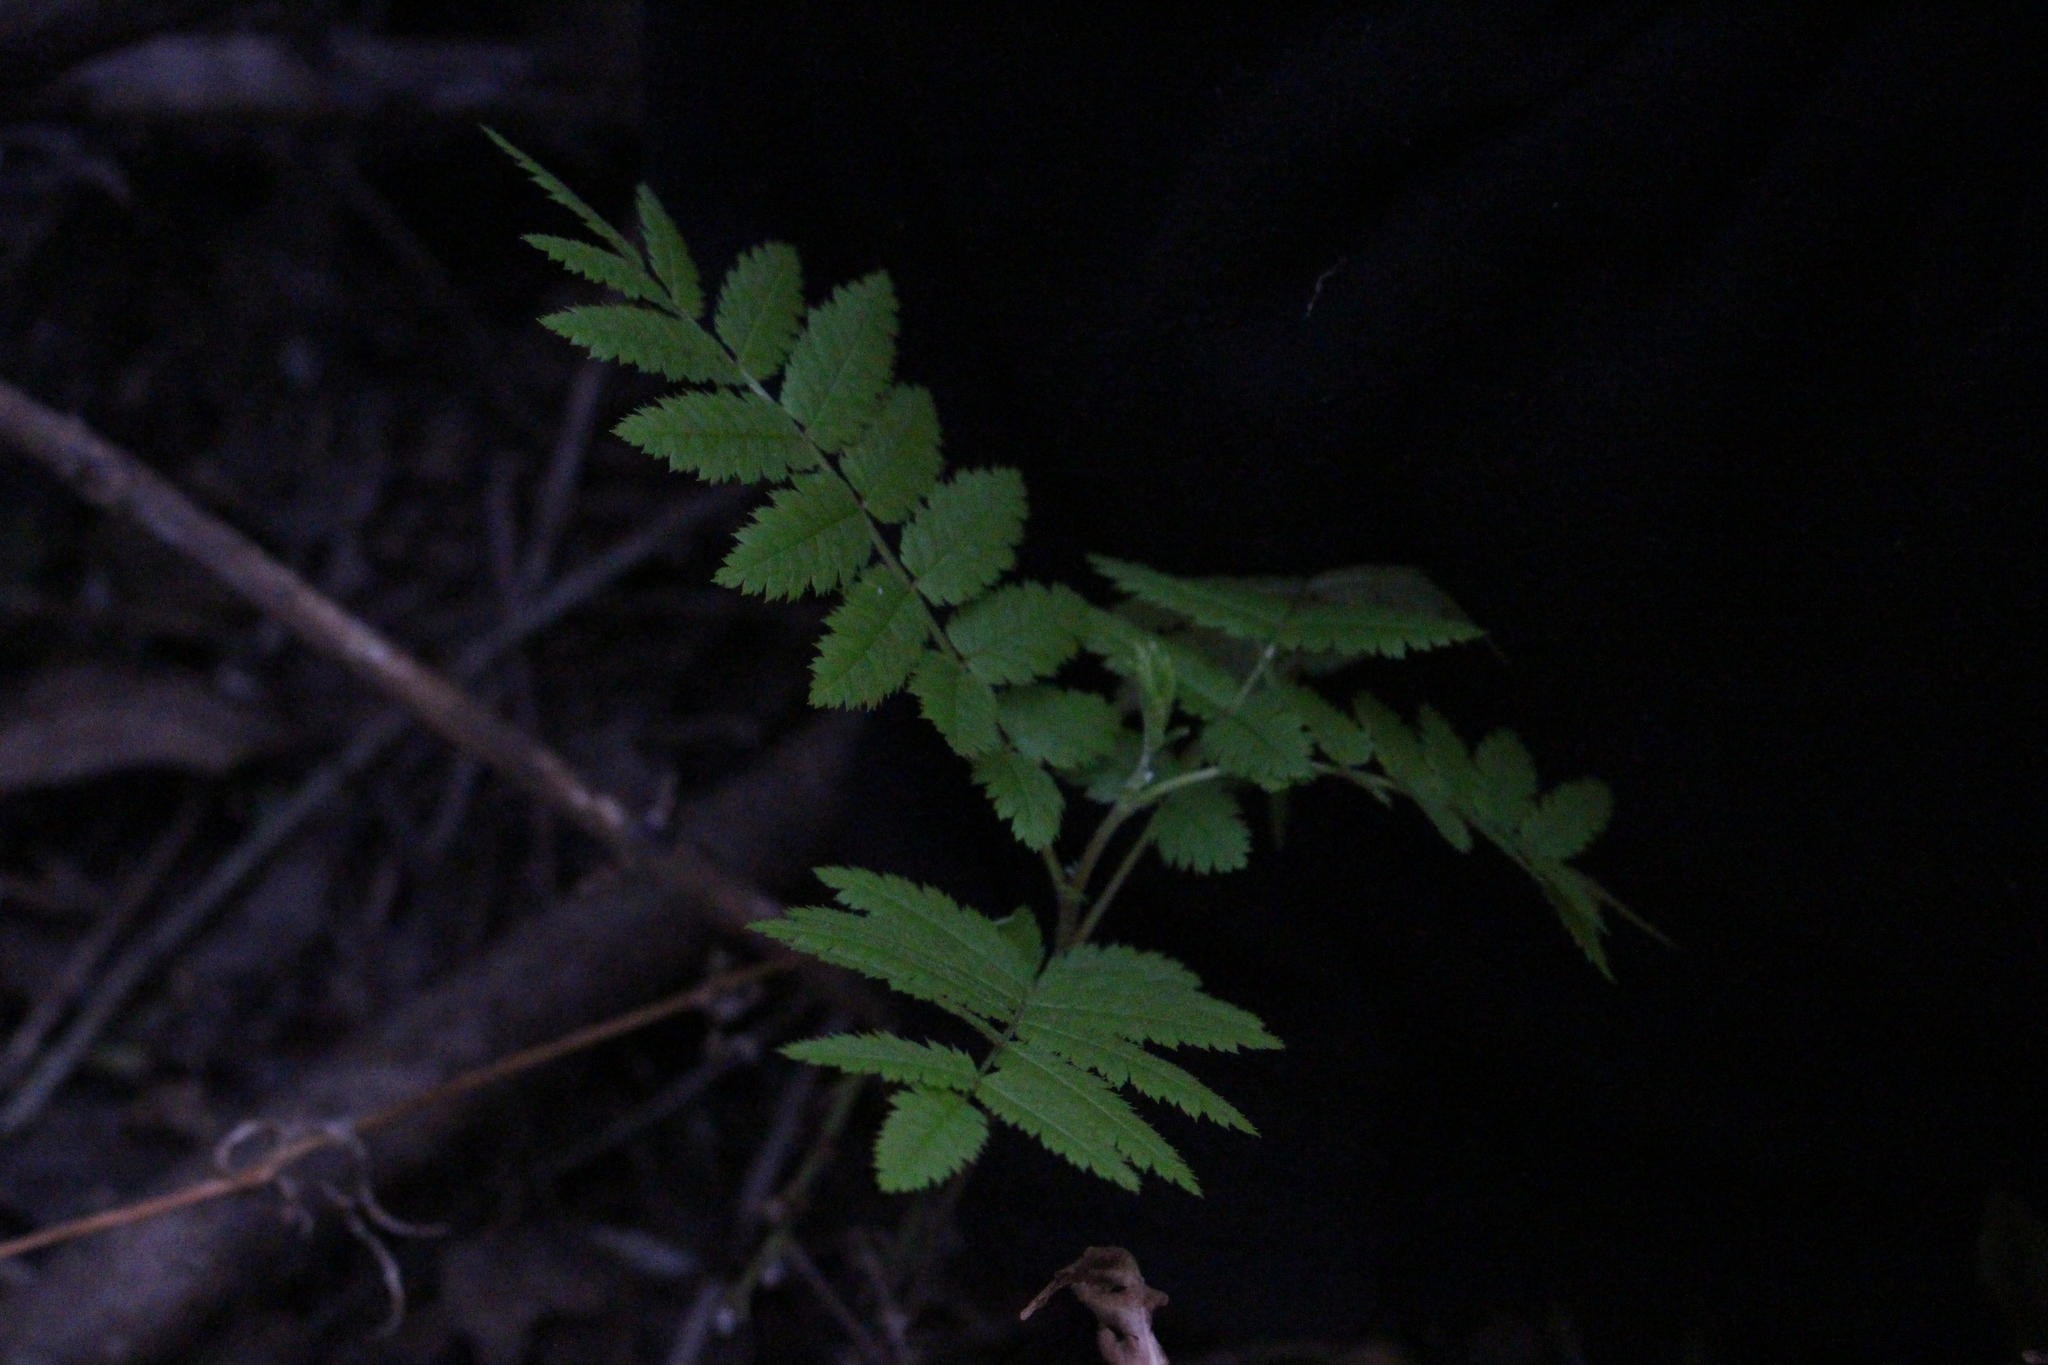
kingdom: Plantae
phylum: Tracheophyta
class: Magnoliopsida
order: Rosales
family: Rosaceae
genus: Sorbus
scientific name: Sorbus aucuparia
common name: Rowan
